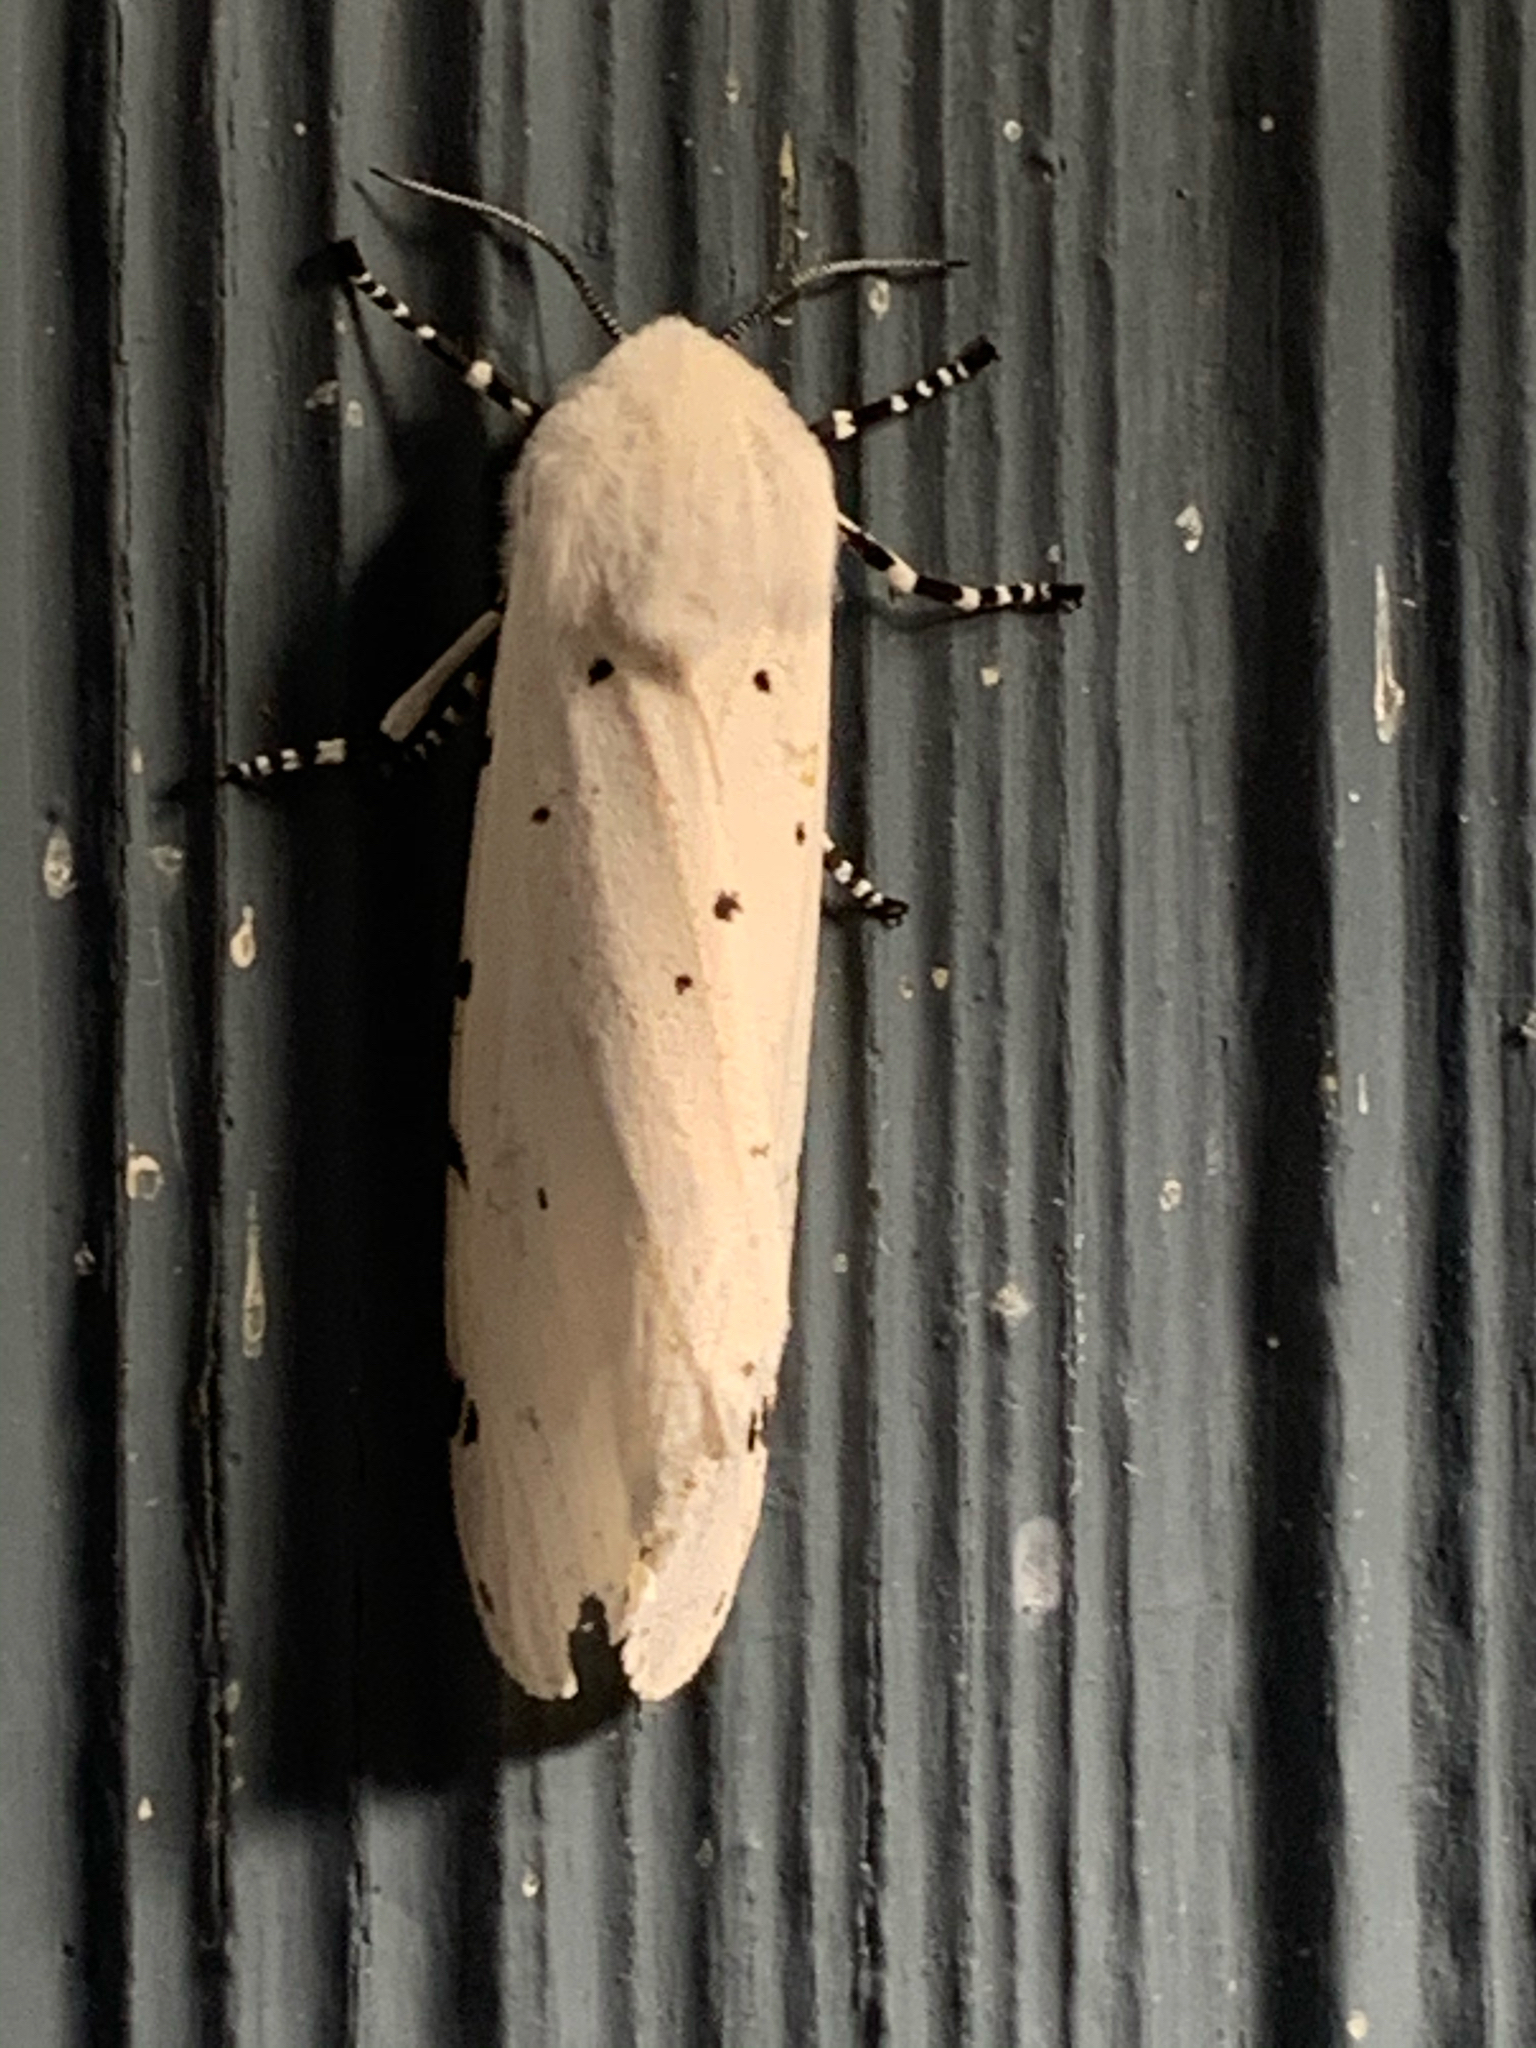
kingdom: Animalia
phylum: Arthropoda
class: Insecta
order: Lepidoptera
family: Erebidae
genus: Estigmene
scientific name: Estigmene acrea
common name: Salt marsh moth
